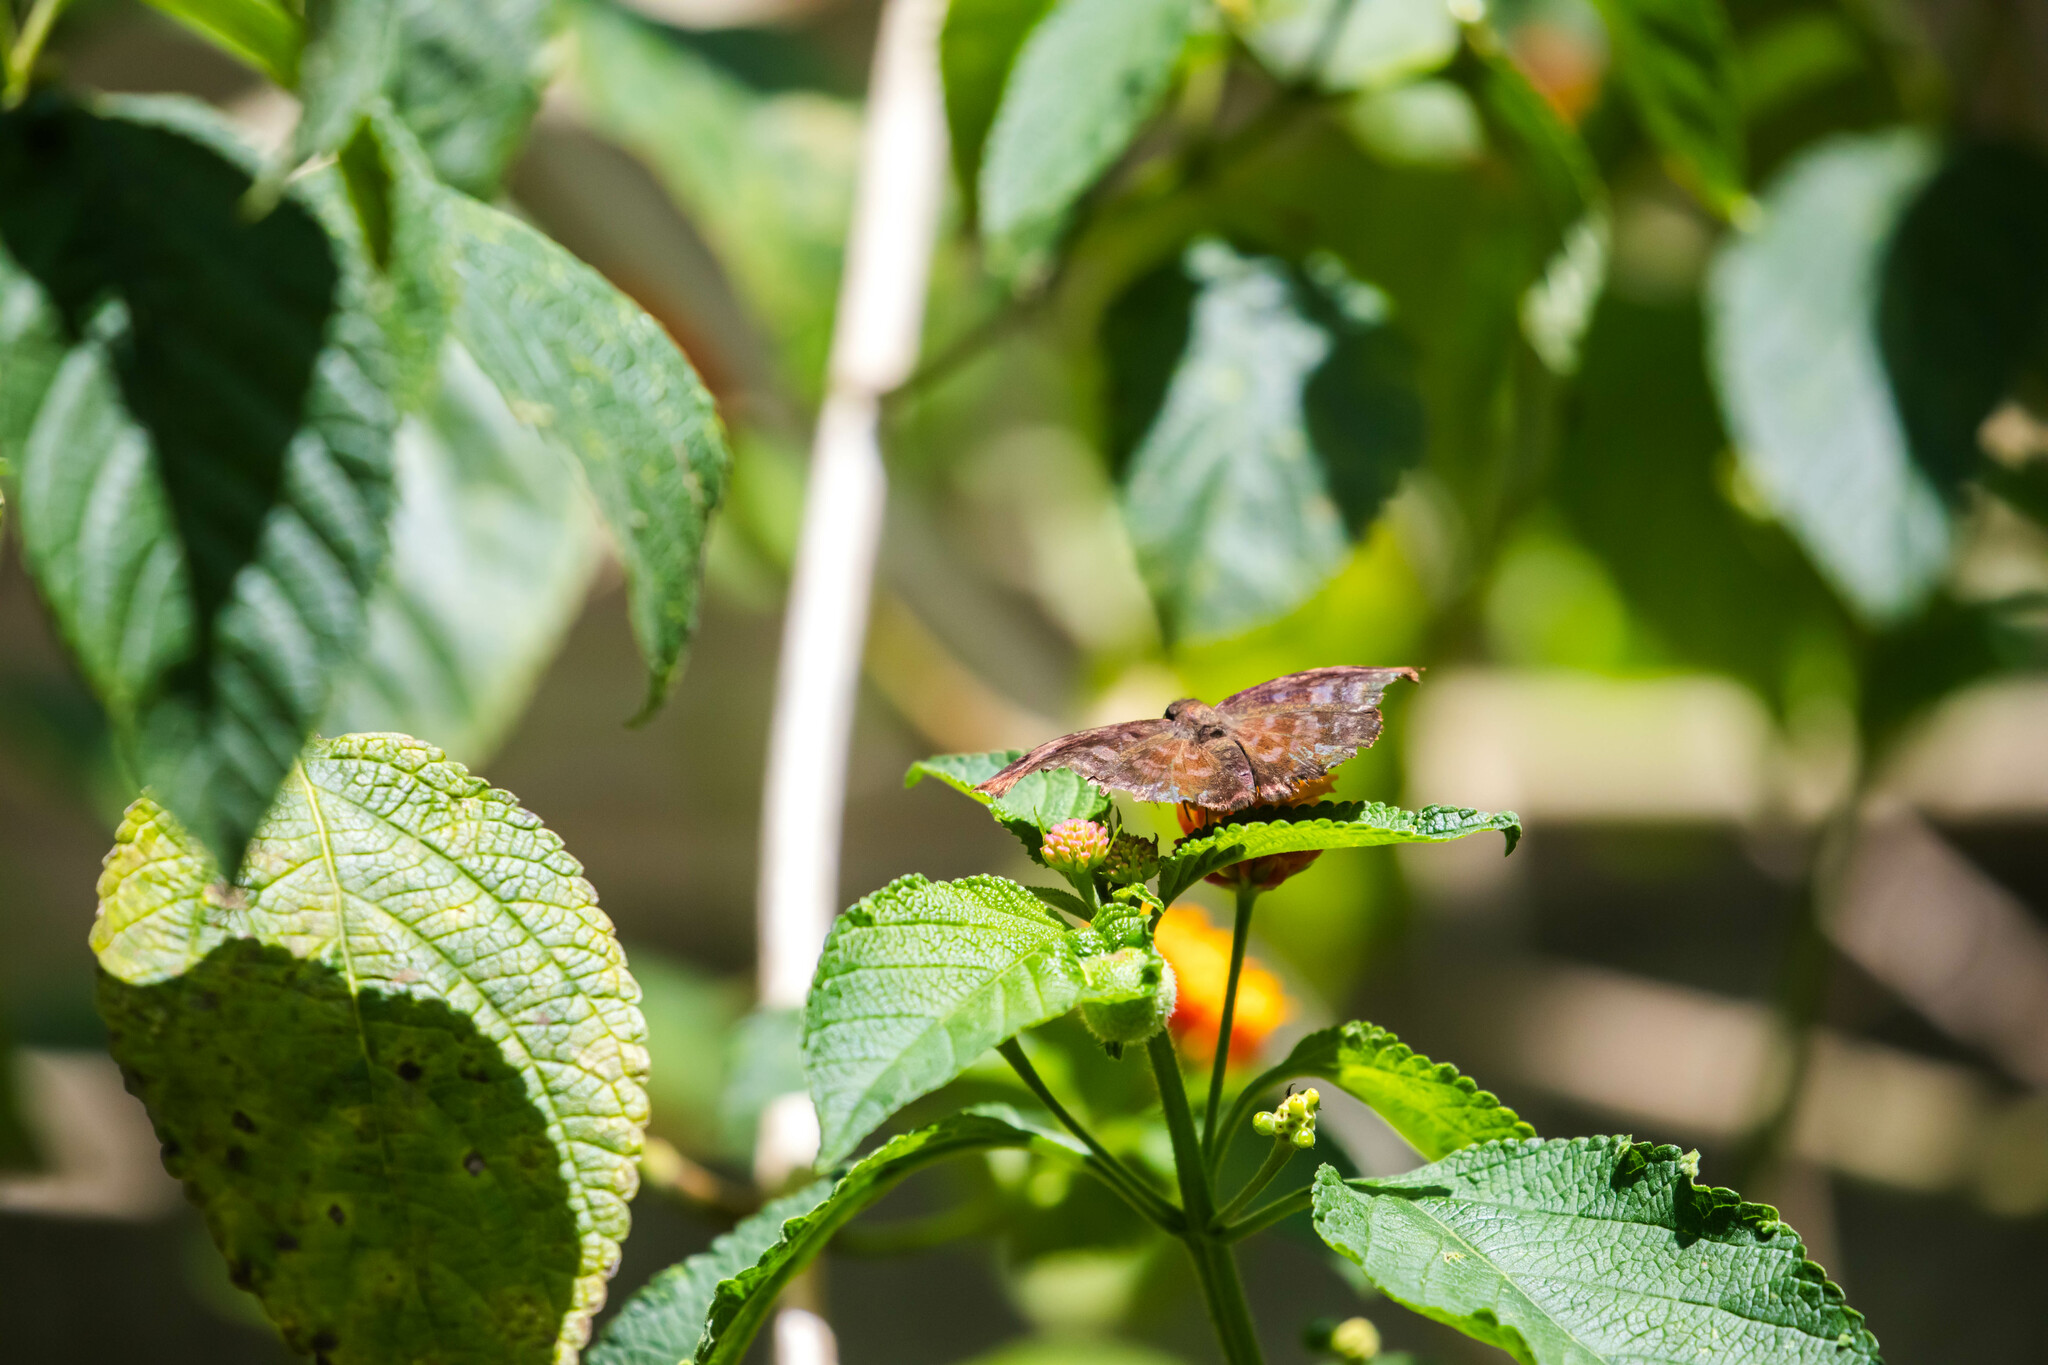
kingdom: Animalia
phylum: Arthropoda
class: Insecta
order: Lepidoptera
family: Hesperiidae
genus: Achlyodes
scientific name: Achlyodes thraso
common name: Sickle-winged skipper
